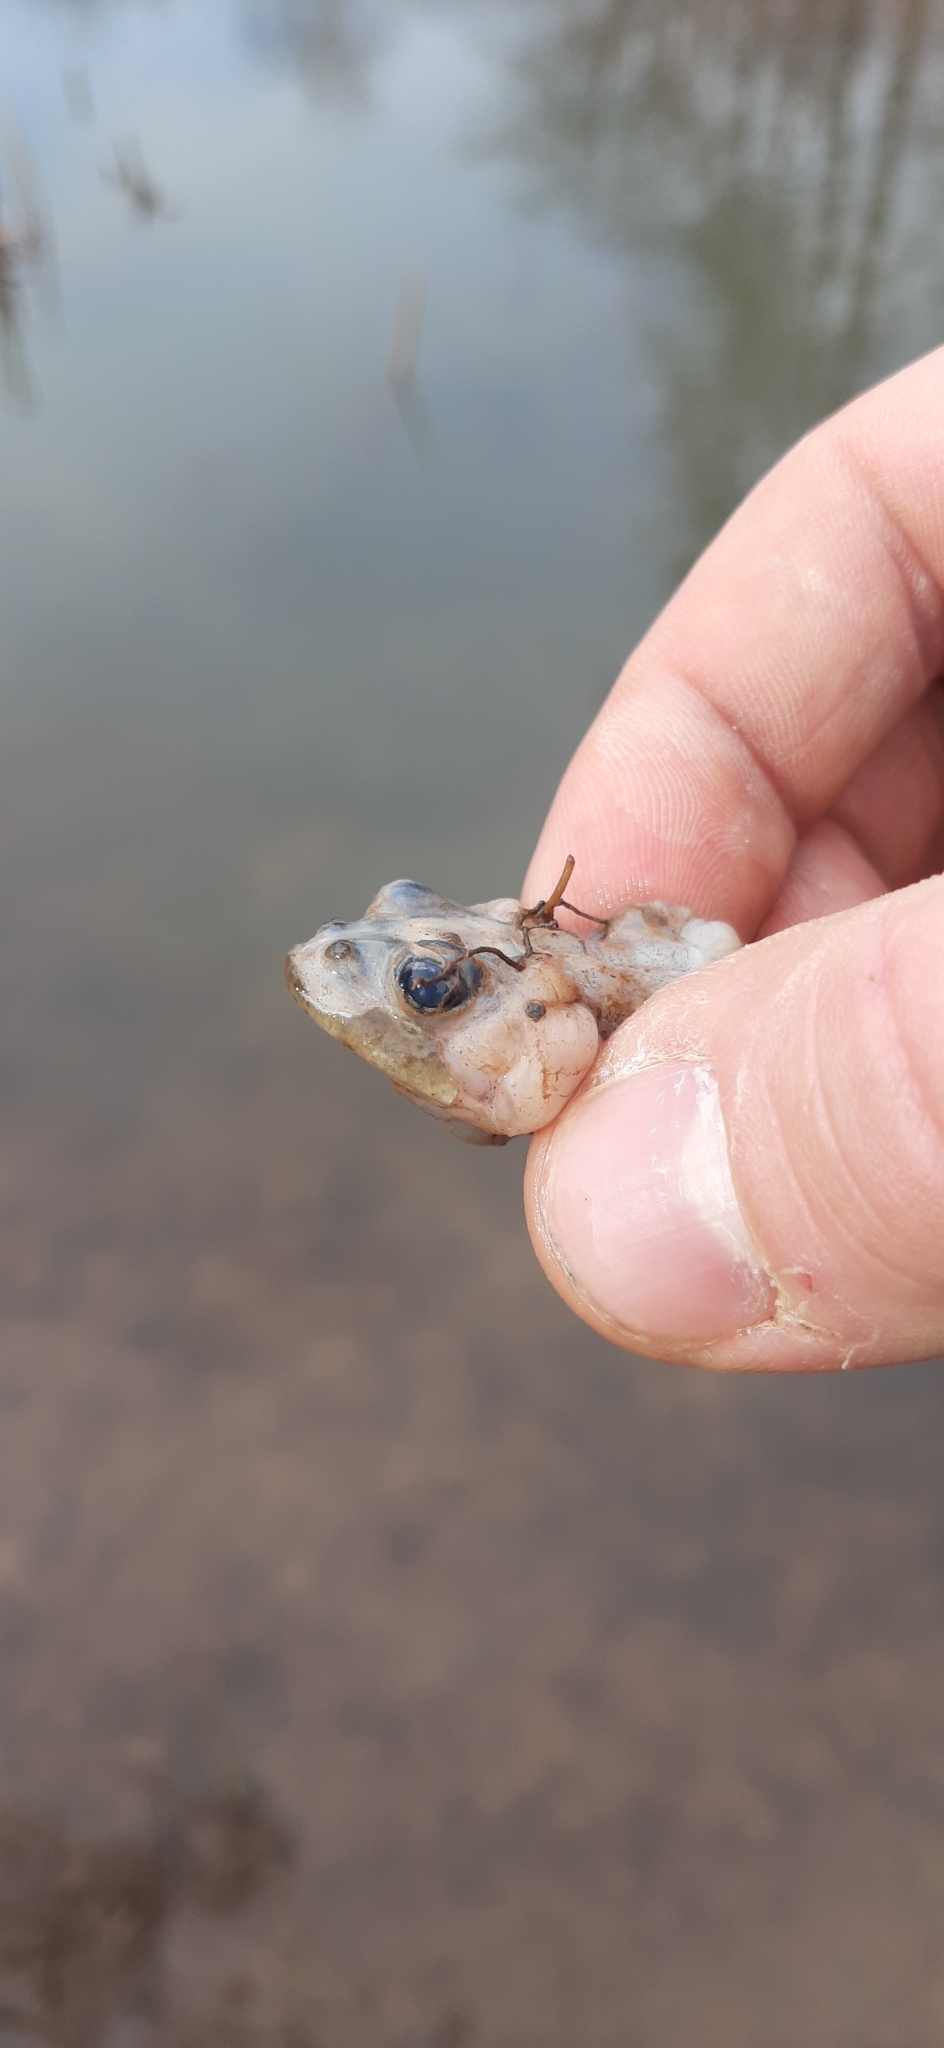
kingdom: Animalia
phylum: Chordata
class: Amphibia
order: Anura
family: Bufonidae
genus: Bufo
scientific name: Bufo bufo
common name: Common toad
